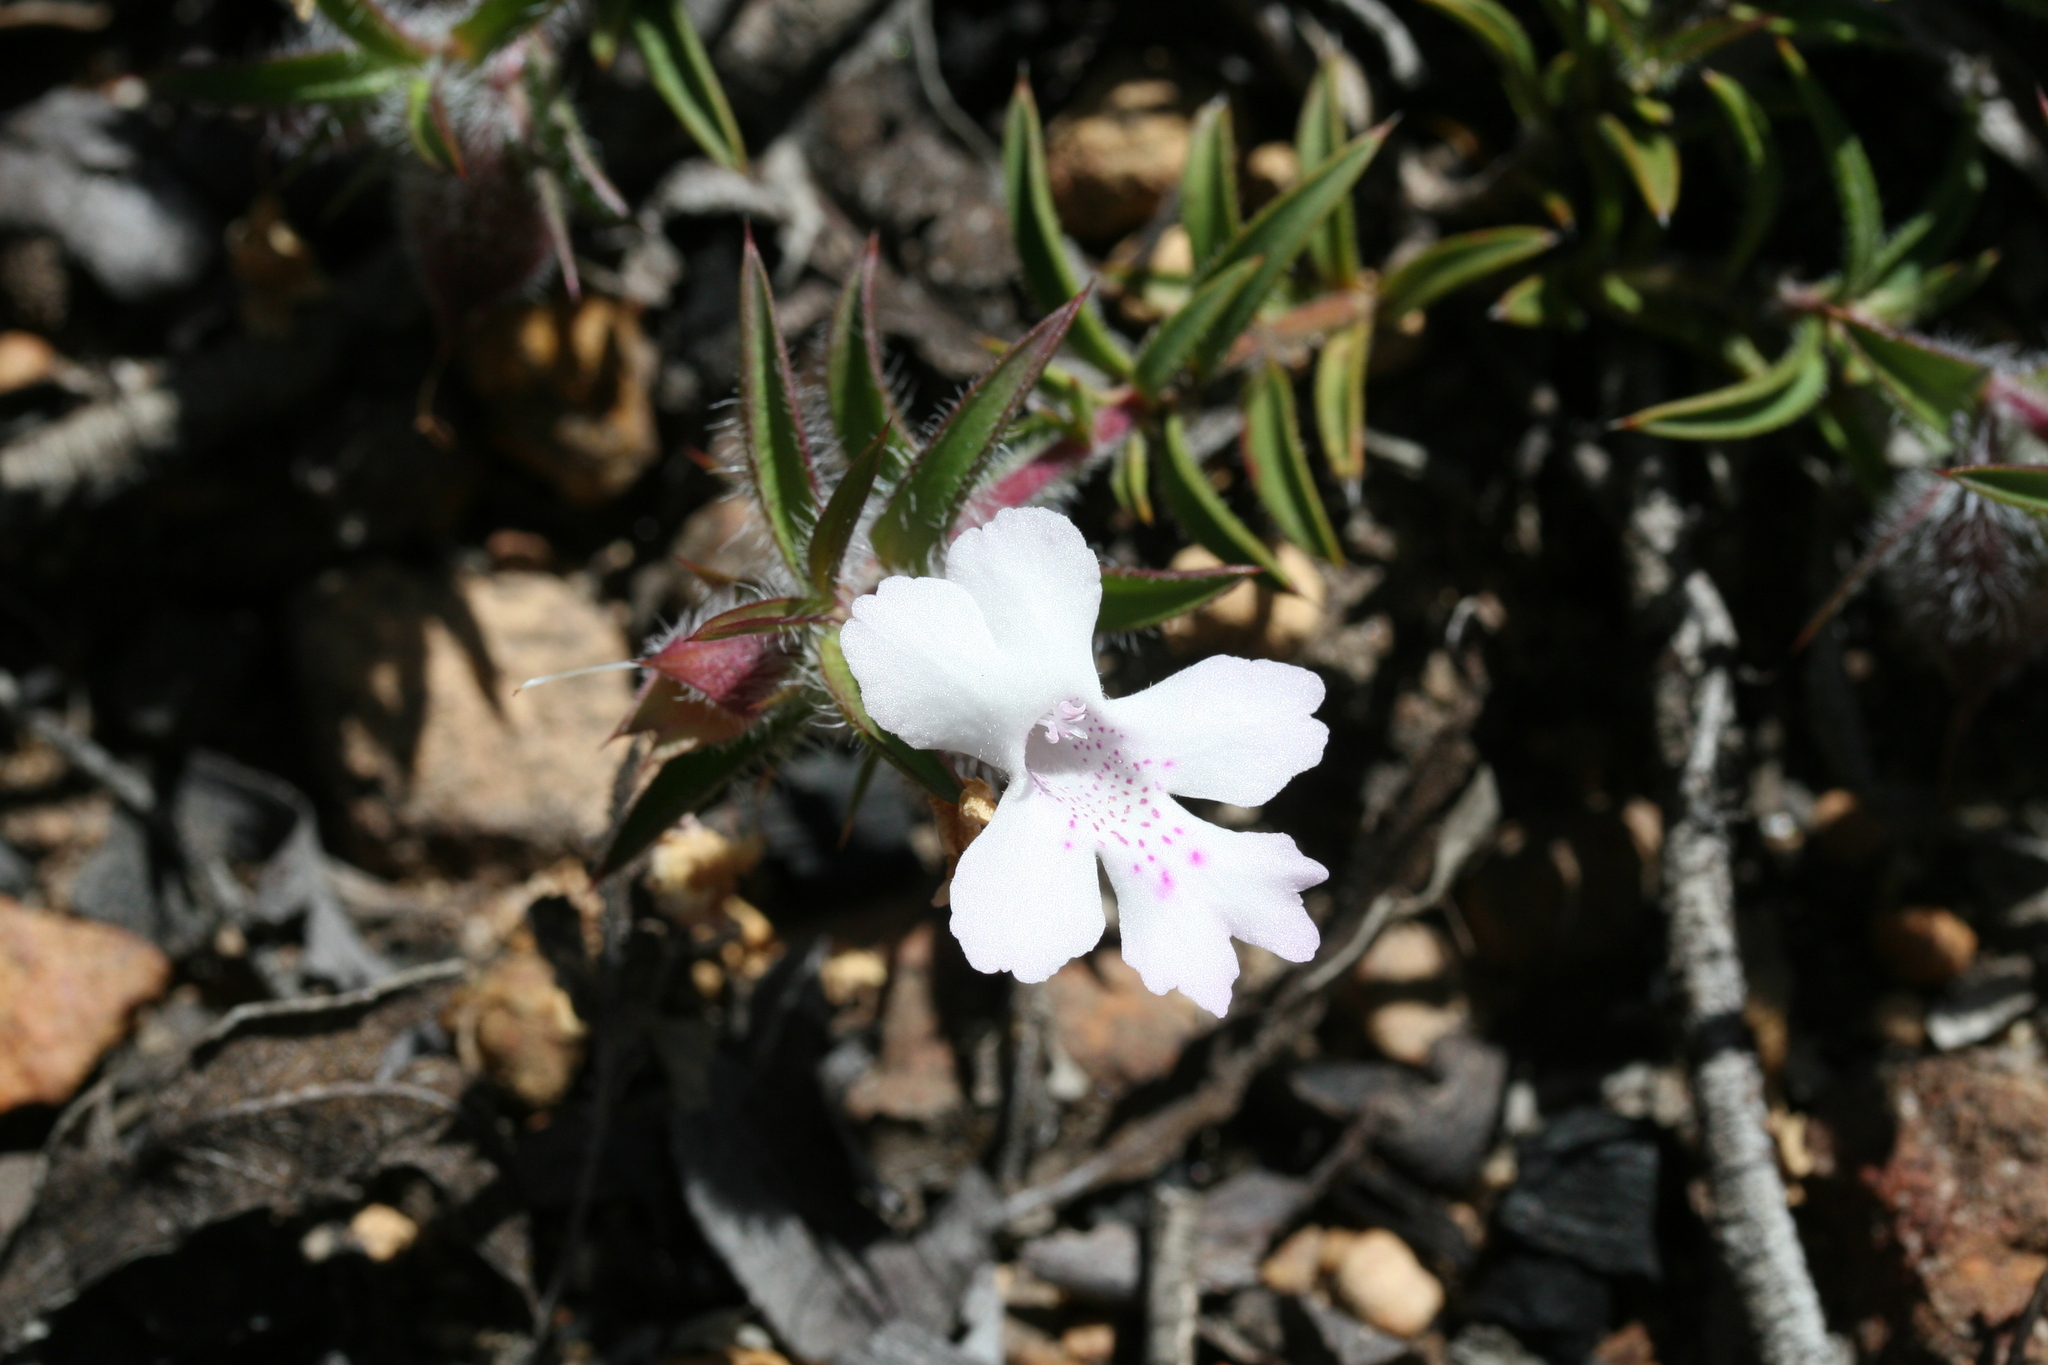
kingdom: Plantae
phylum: Tracheophyta
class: Magnoliopsida
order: Lamiales
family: Lamiaceae
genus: Hemiandra
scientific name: Hemiandra pungens
